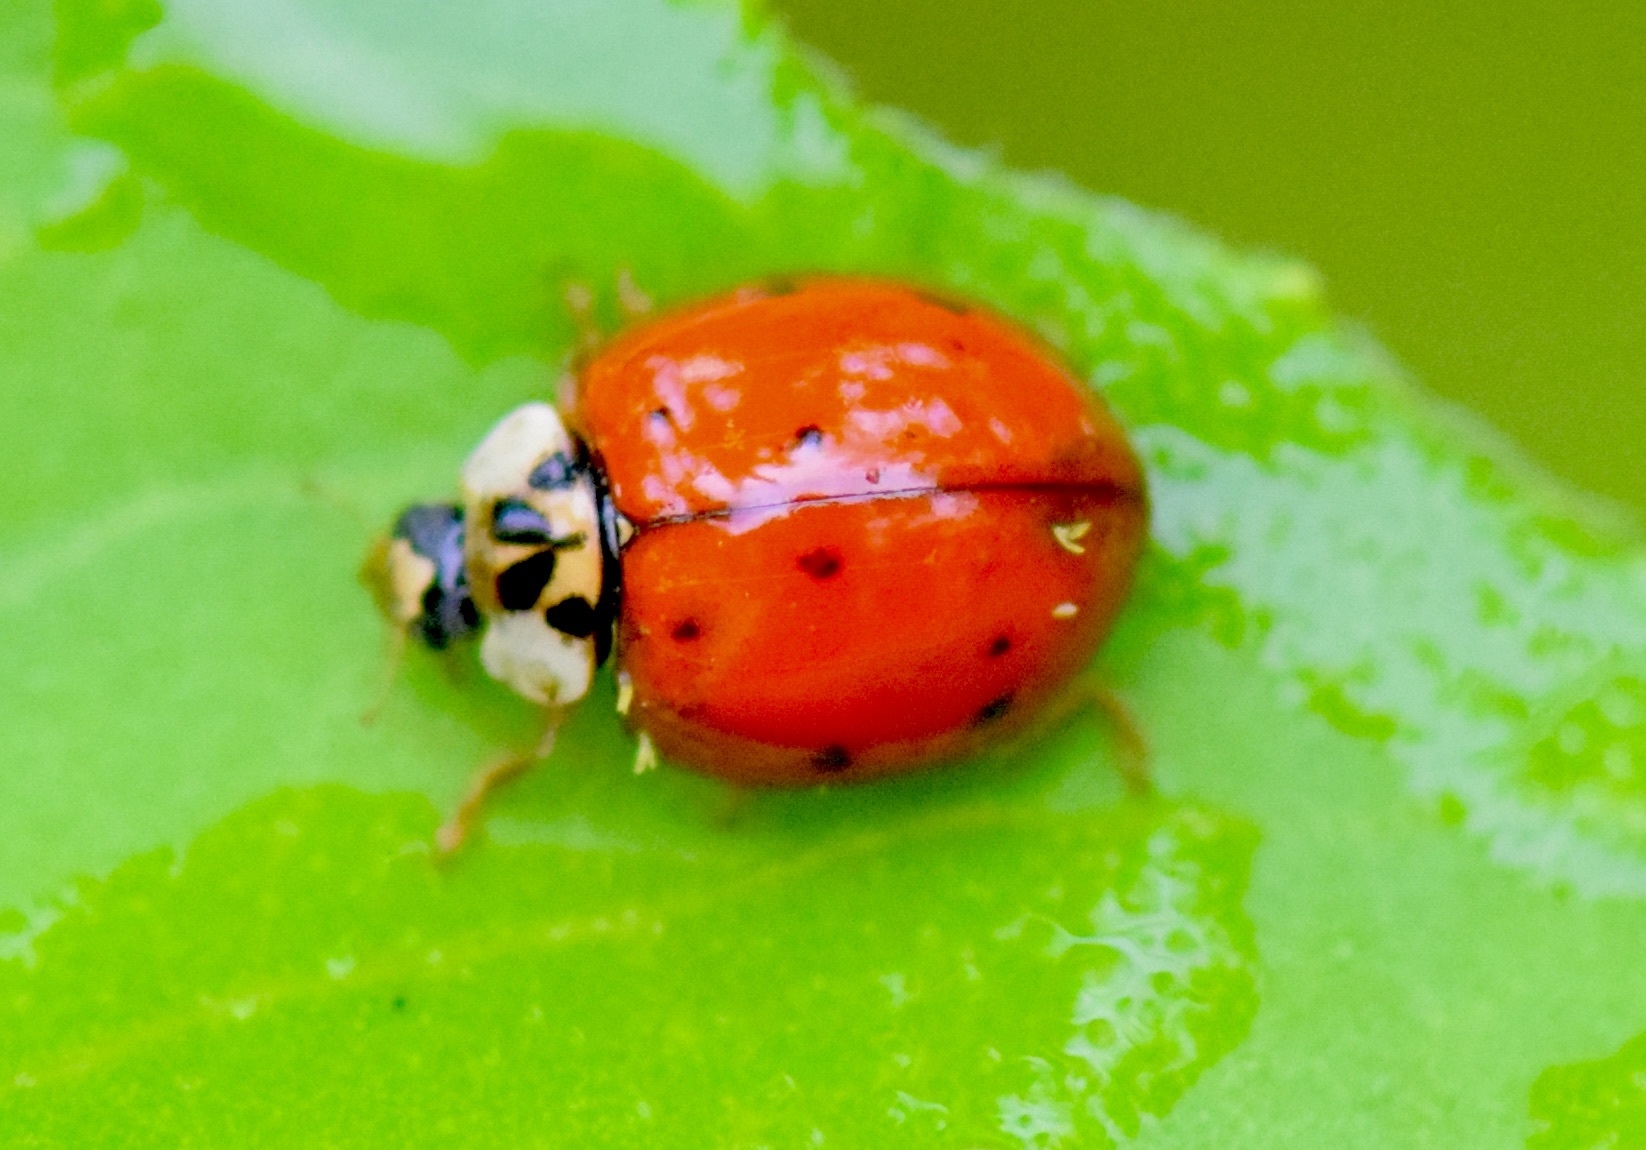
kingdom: Animalia
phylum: Arthropoda
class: Insecta
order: Coleoptera
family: Coccinellidae
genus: Harmonia
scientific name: Harmonia axyridis
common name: Harlequin ladybird
